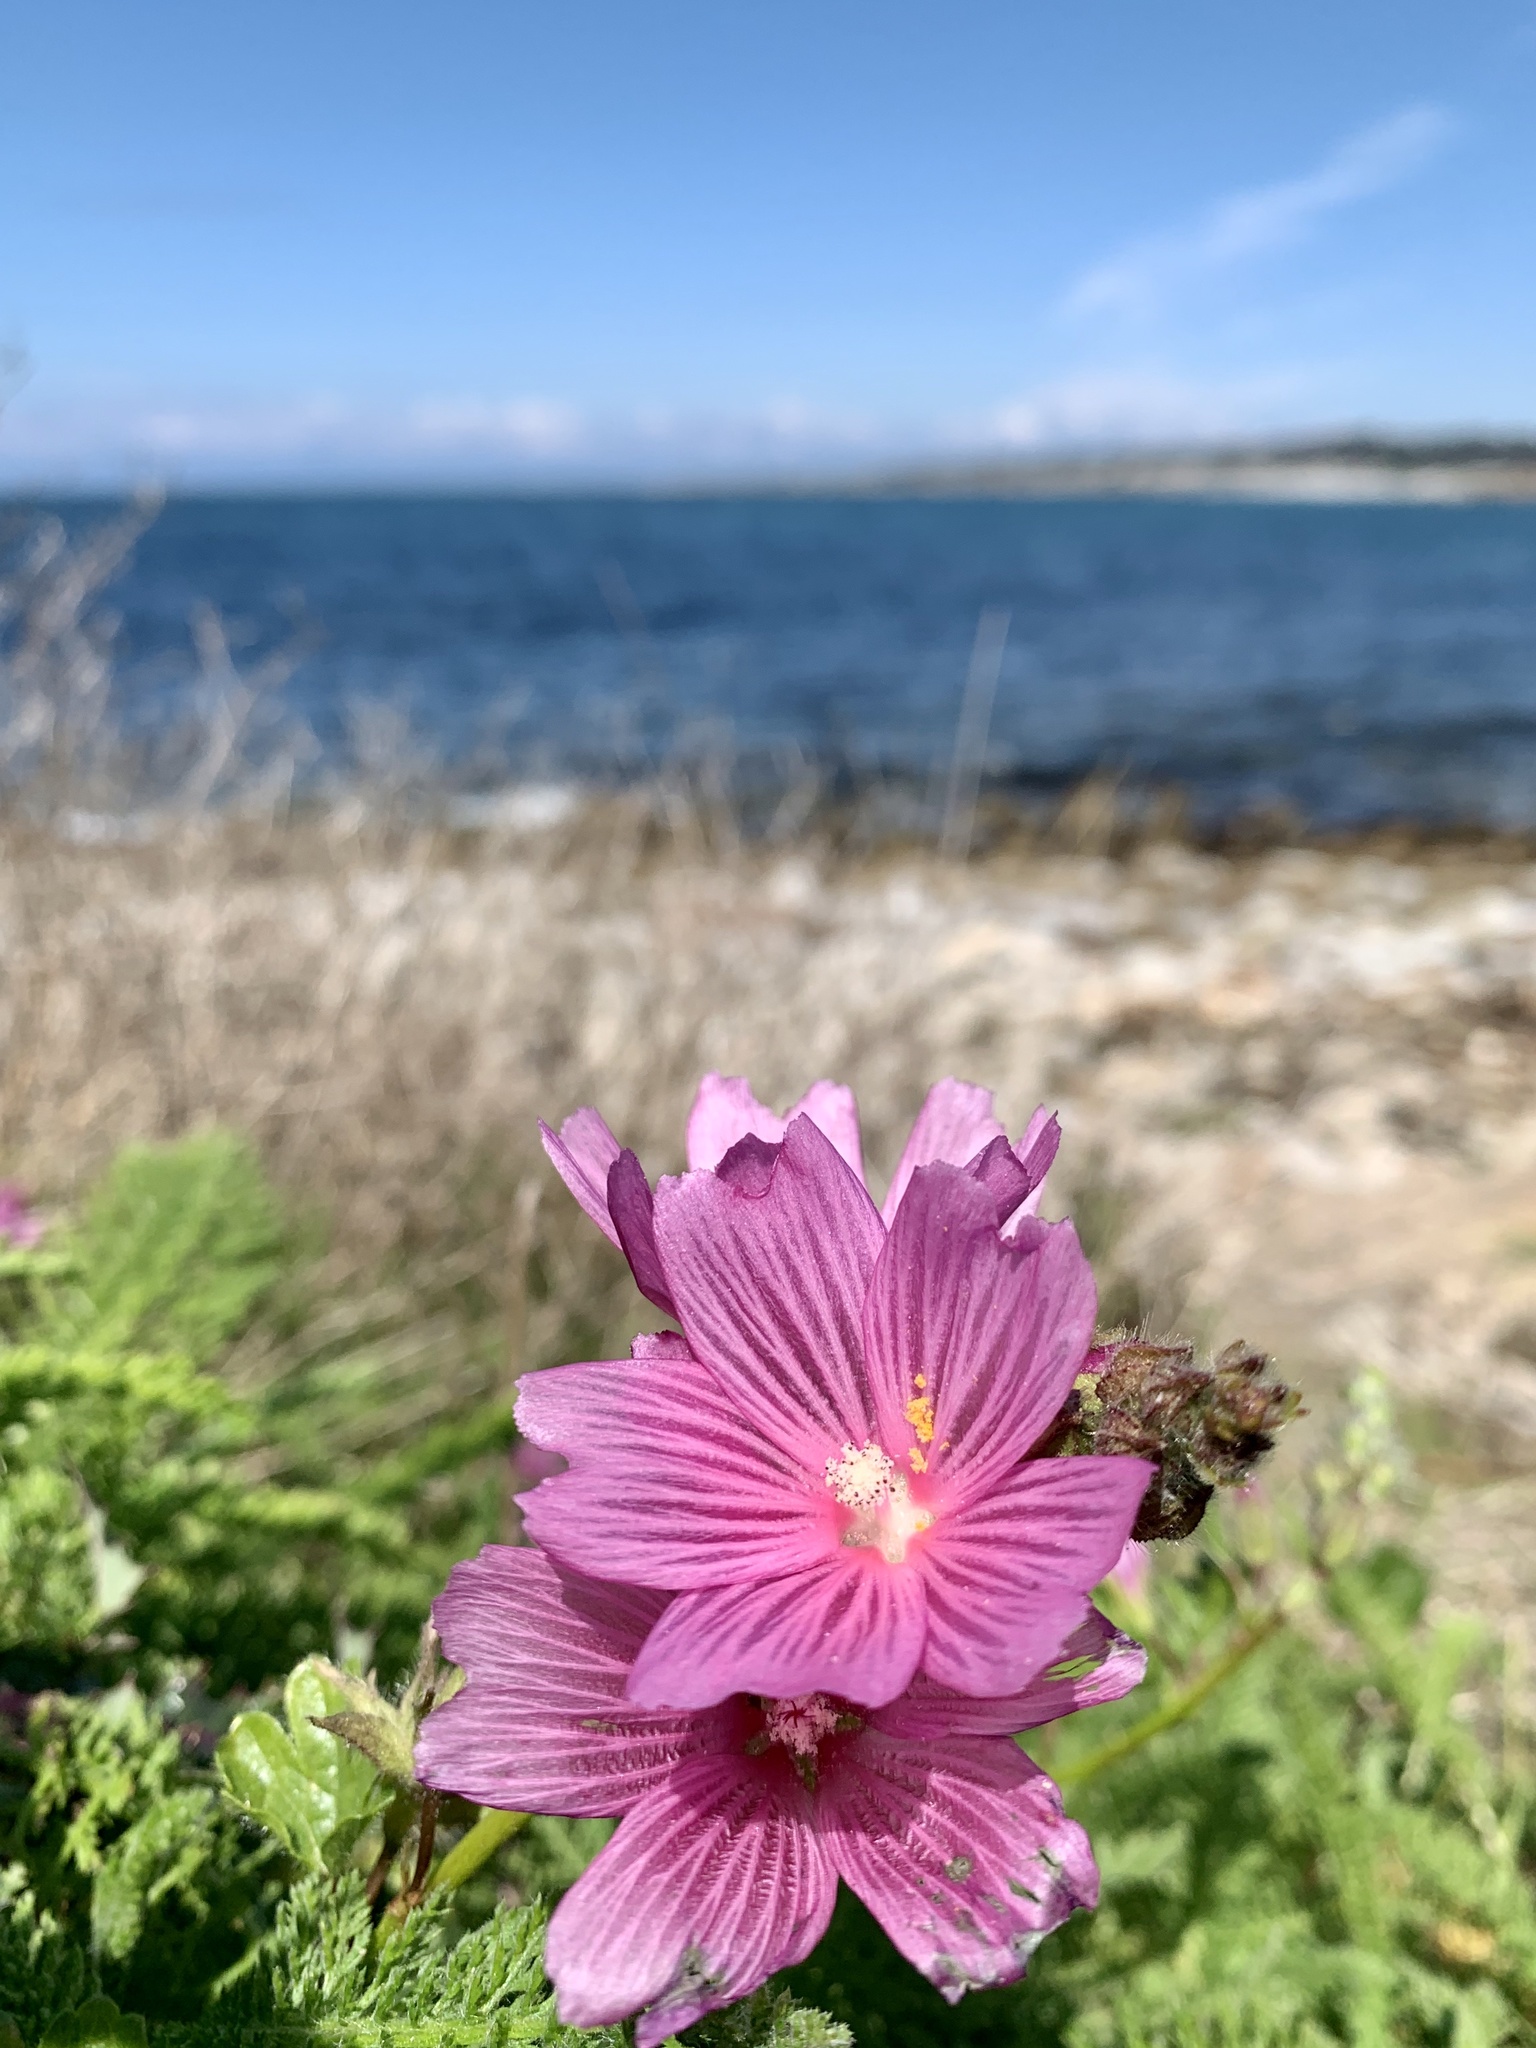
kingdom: Plantae
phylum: Tracheophyta
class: Magnoliopsida
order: Malvales
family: Malvaceae
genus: Sidalcea
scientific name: Sidalcea malviflora
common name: Greek mallow
